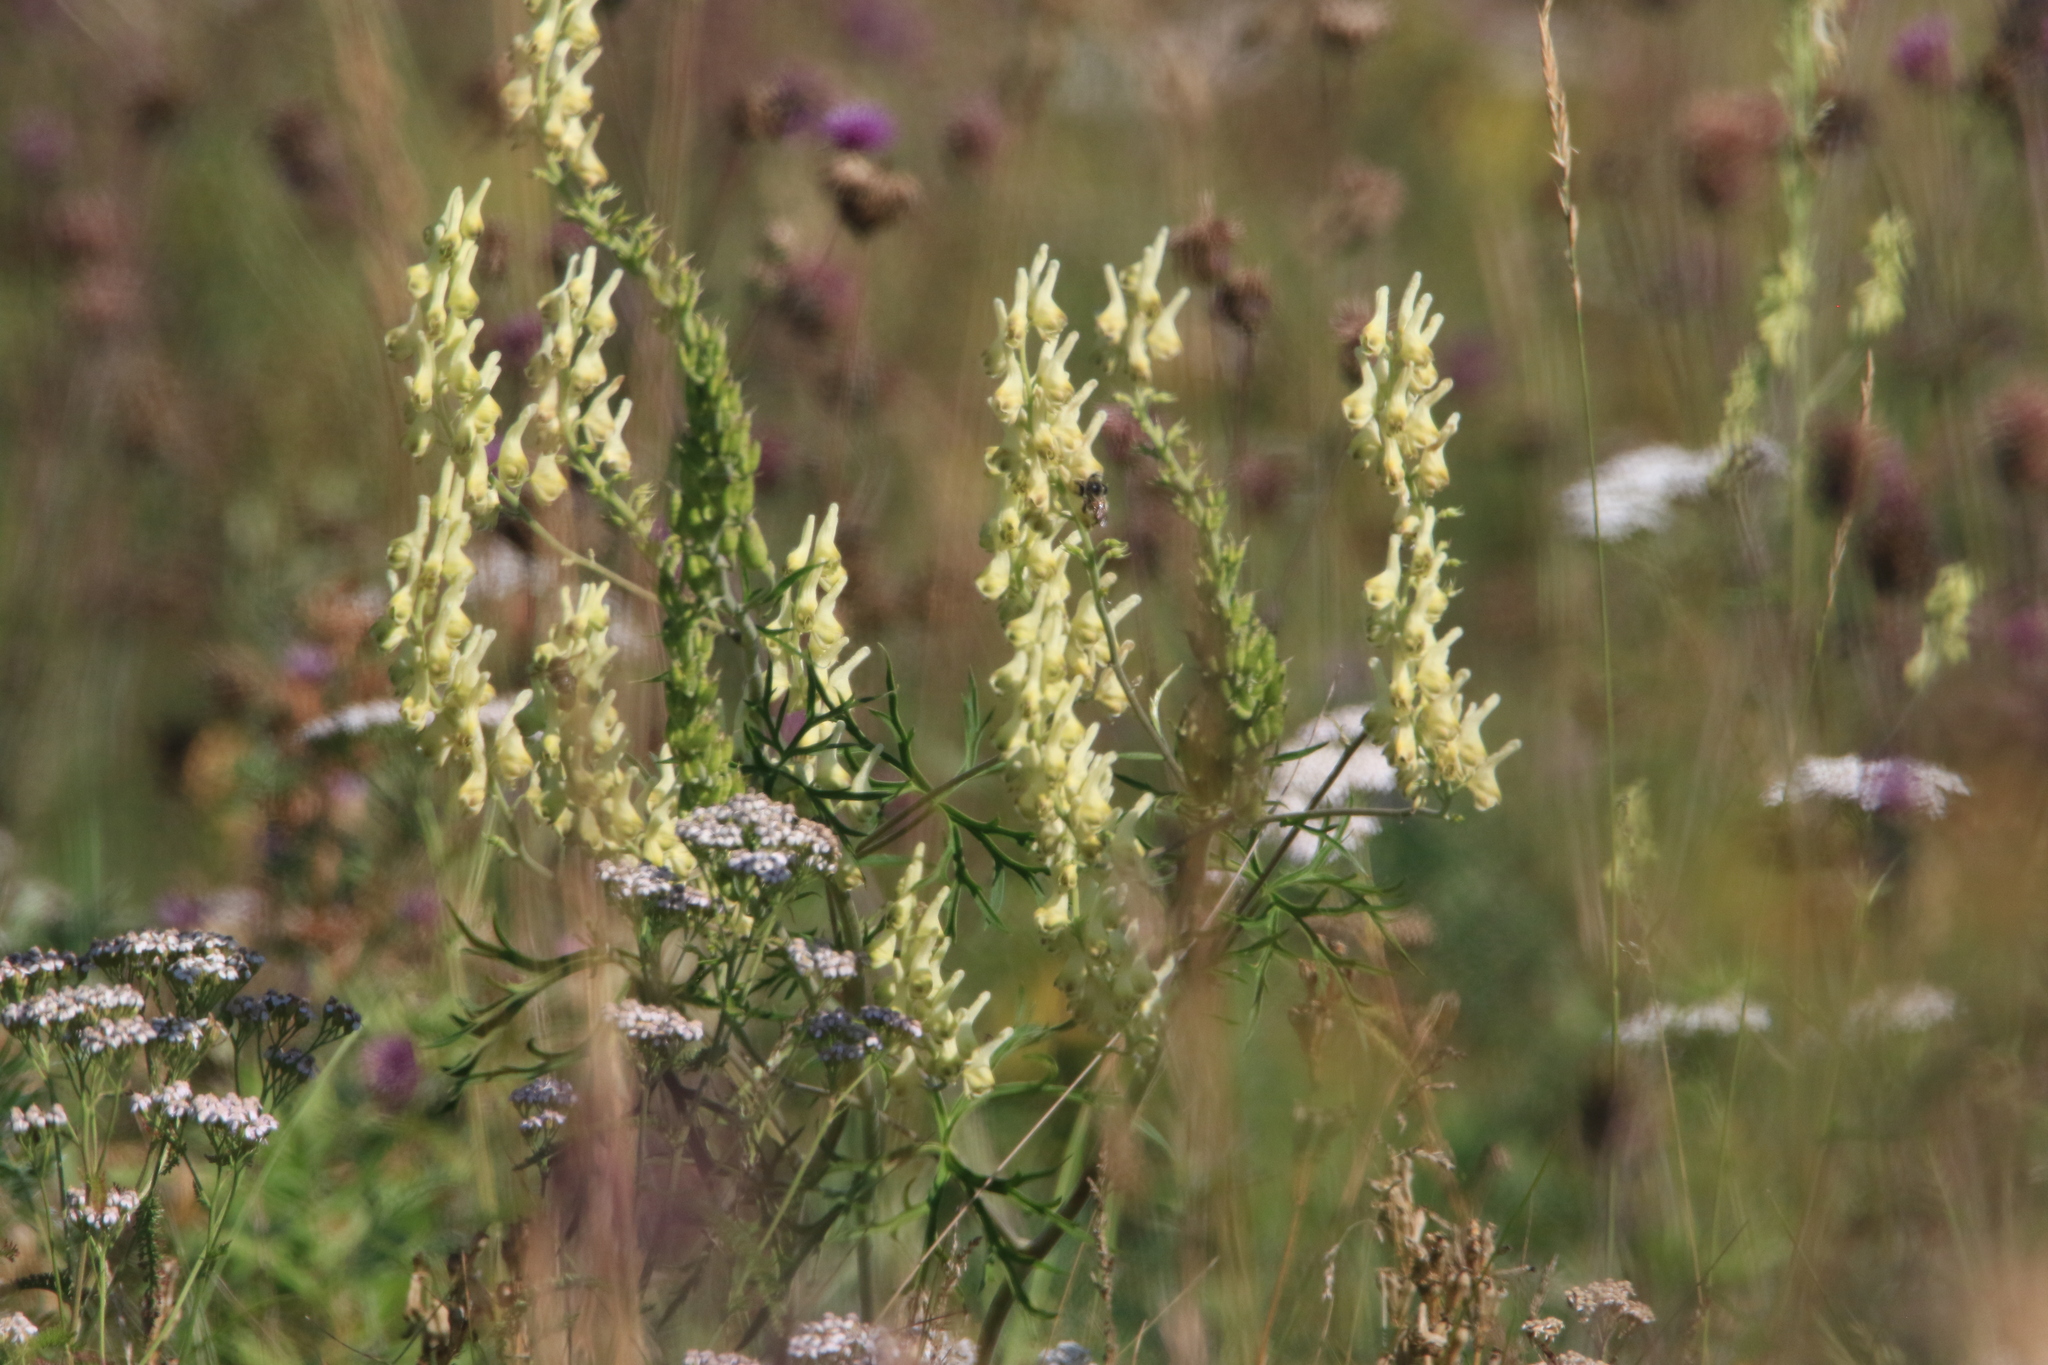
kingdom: Plantae
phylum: Tracheophyta
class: Magnoliopsida
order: Ranunculales
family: Ranunculaceae
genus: Aconitum
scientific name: Aconitum barbatum
